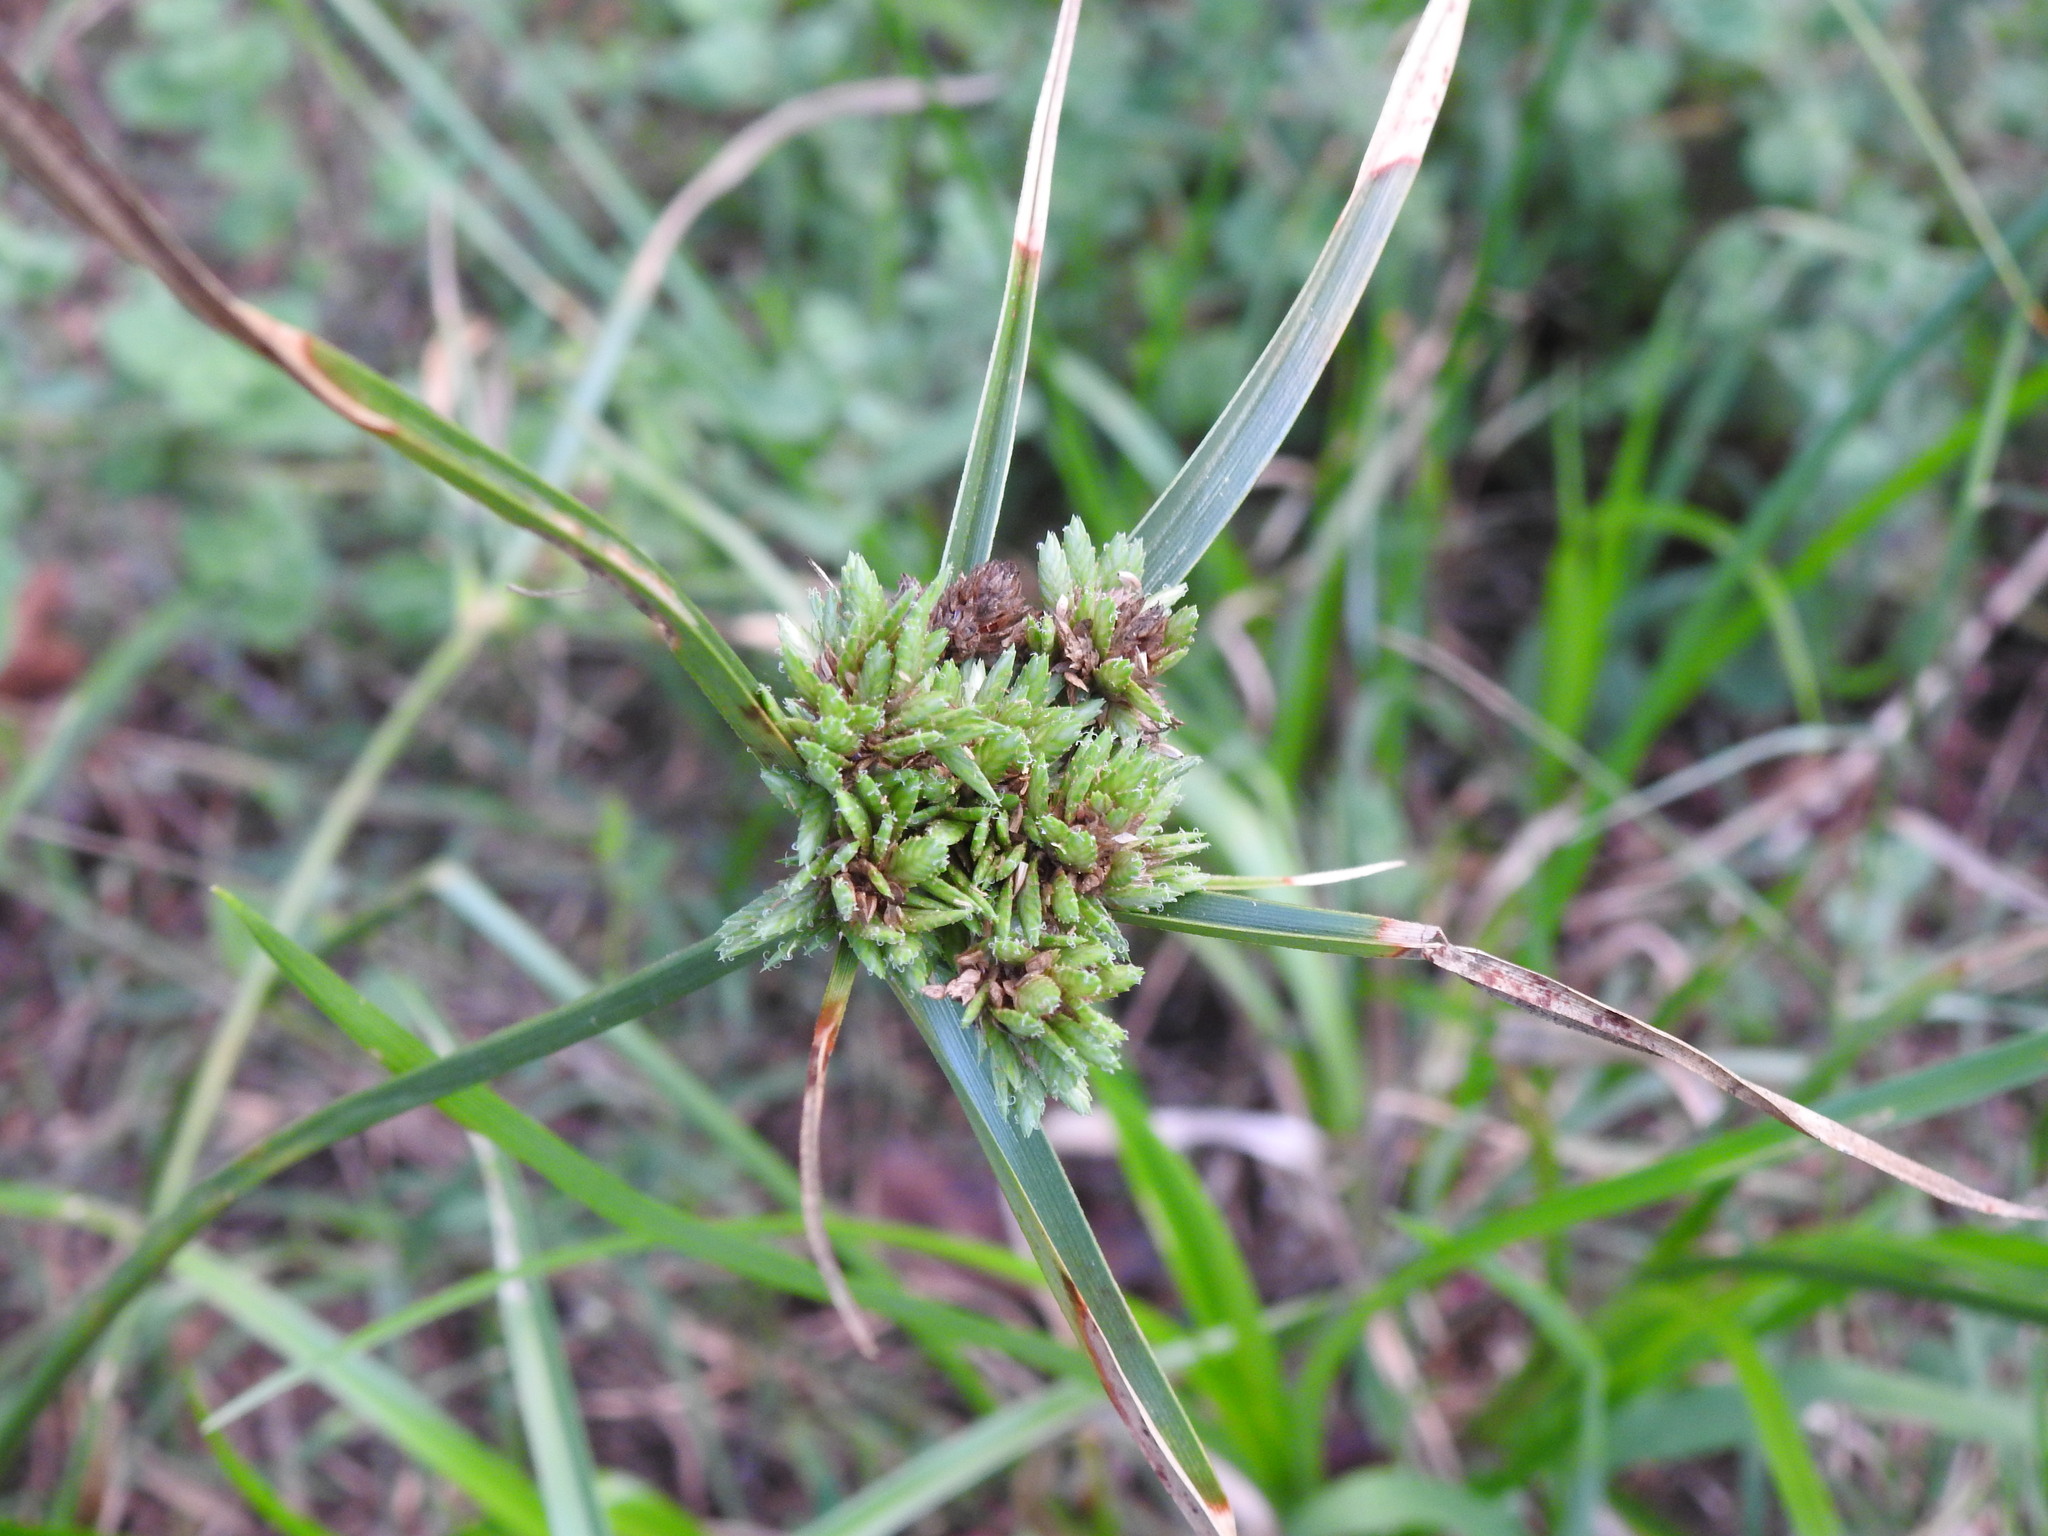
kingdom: Plantae
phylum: Tracheophyta
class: Liliopsida
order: Poales
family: Cyperaceae
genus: Cyperus
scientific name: Cyperus eragrostis
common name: Tall flatsedge
